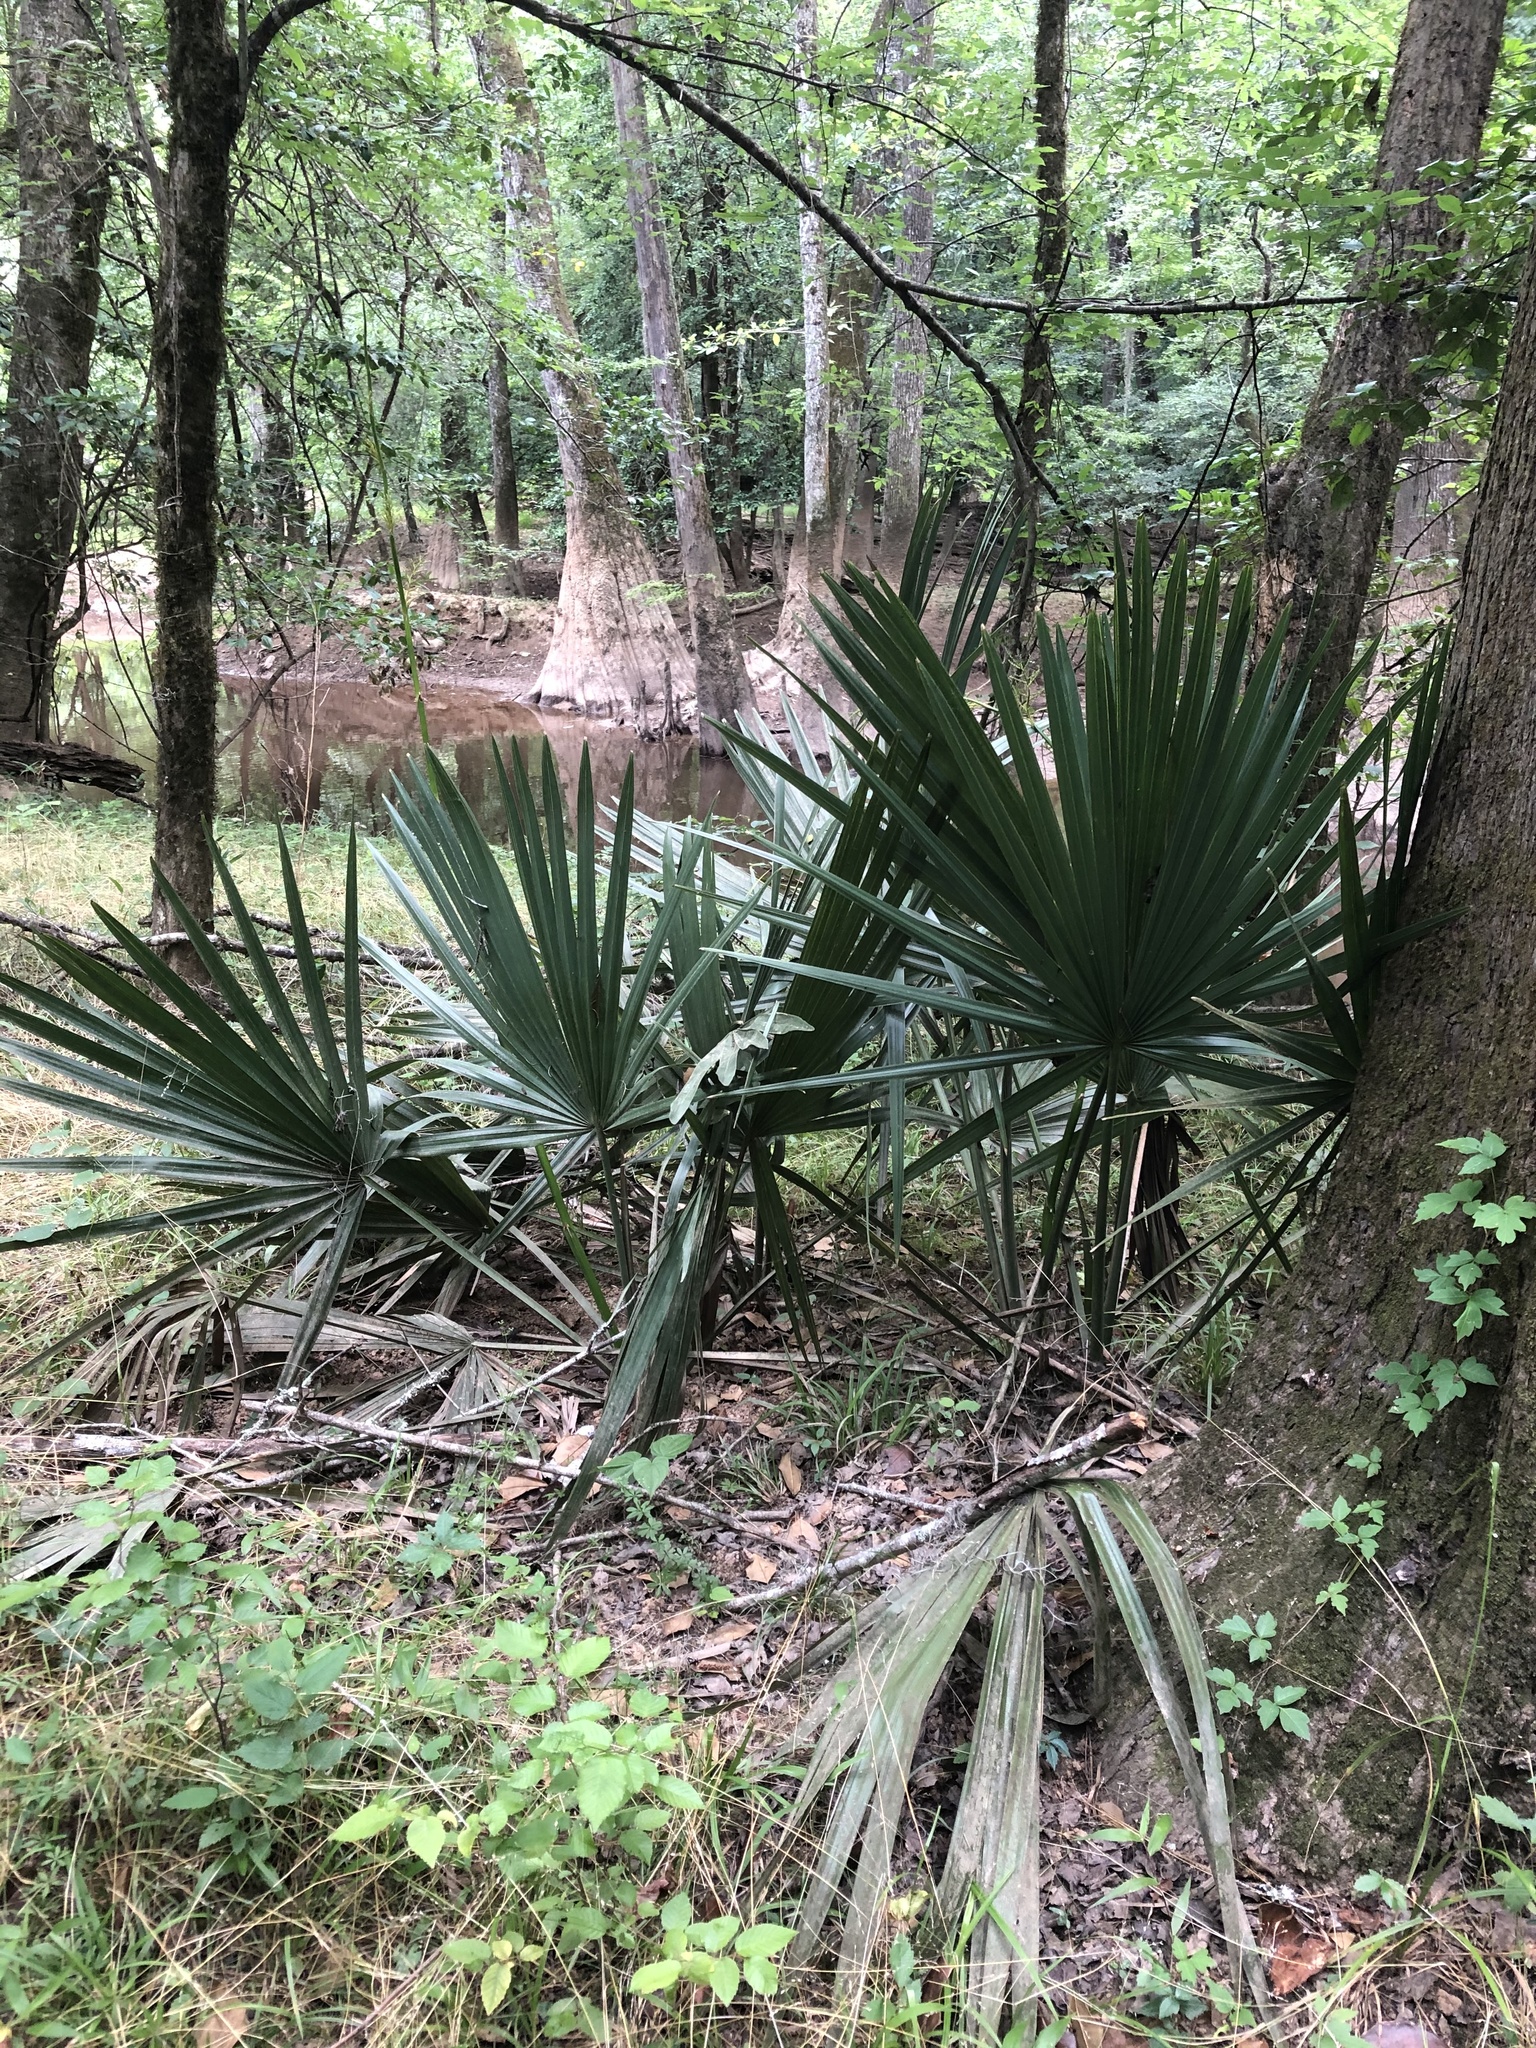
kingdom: Plantae
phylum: Tracheophyta
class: Liliopsida
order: Arecales
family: Arecaceae
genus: Sabal
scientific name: Sabal minor
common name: Dwarf palmetto
